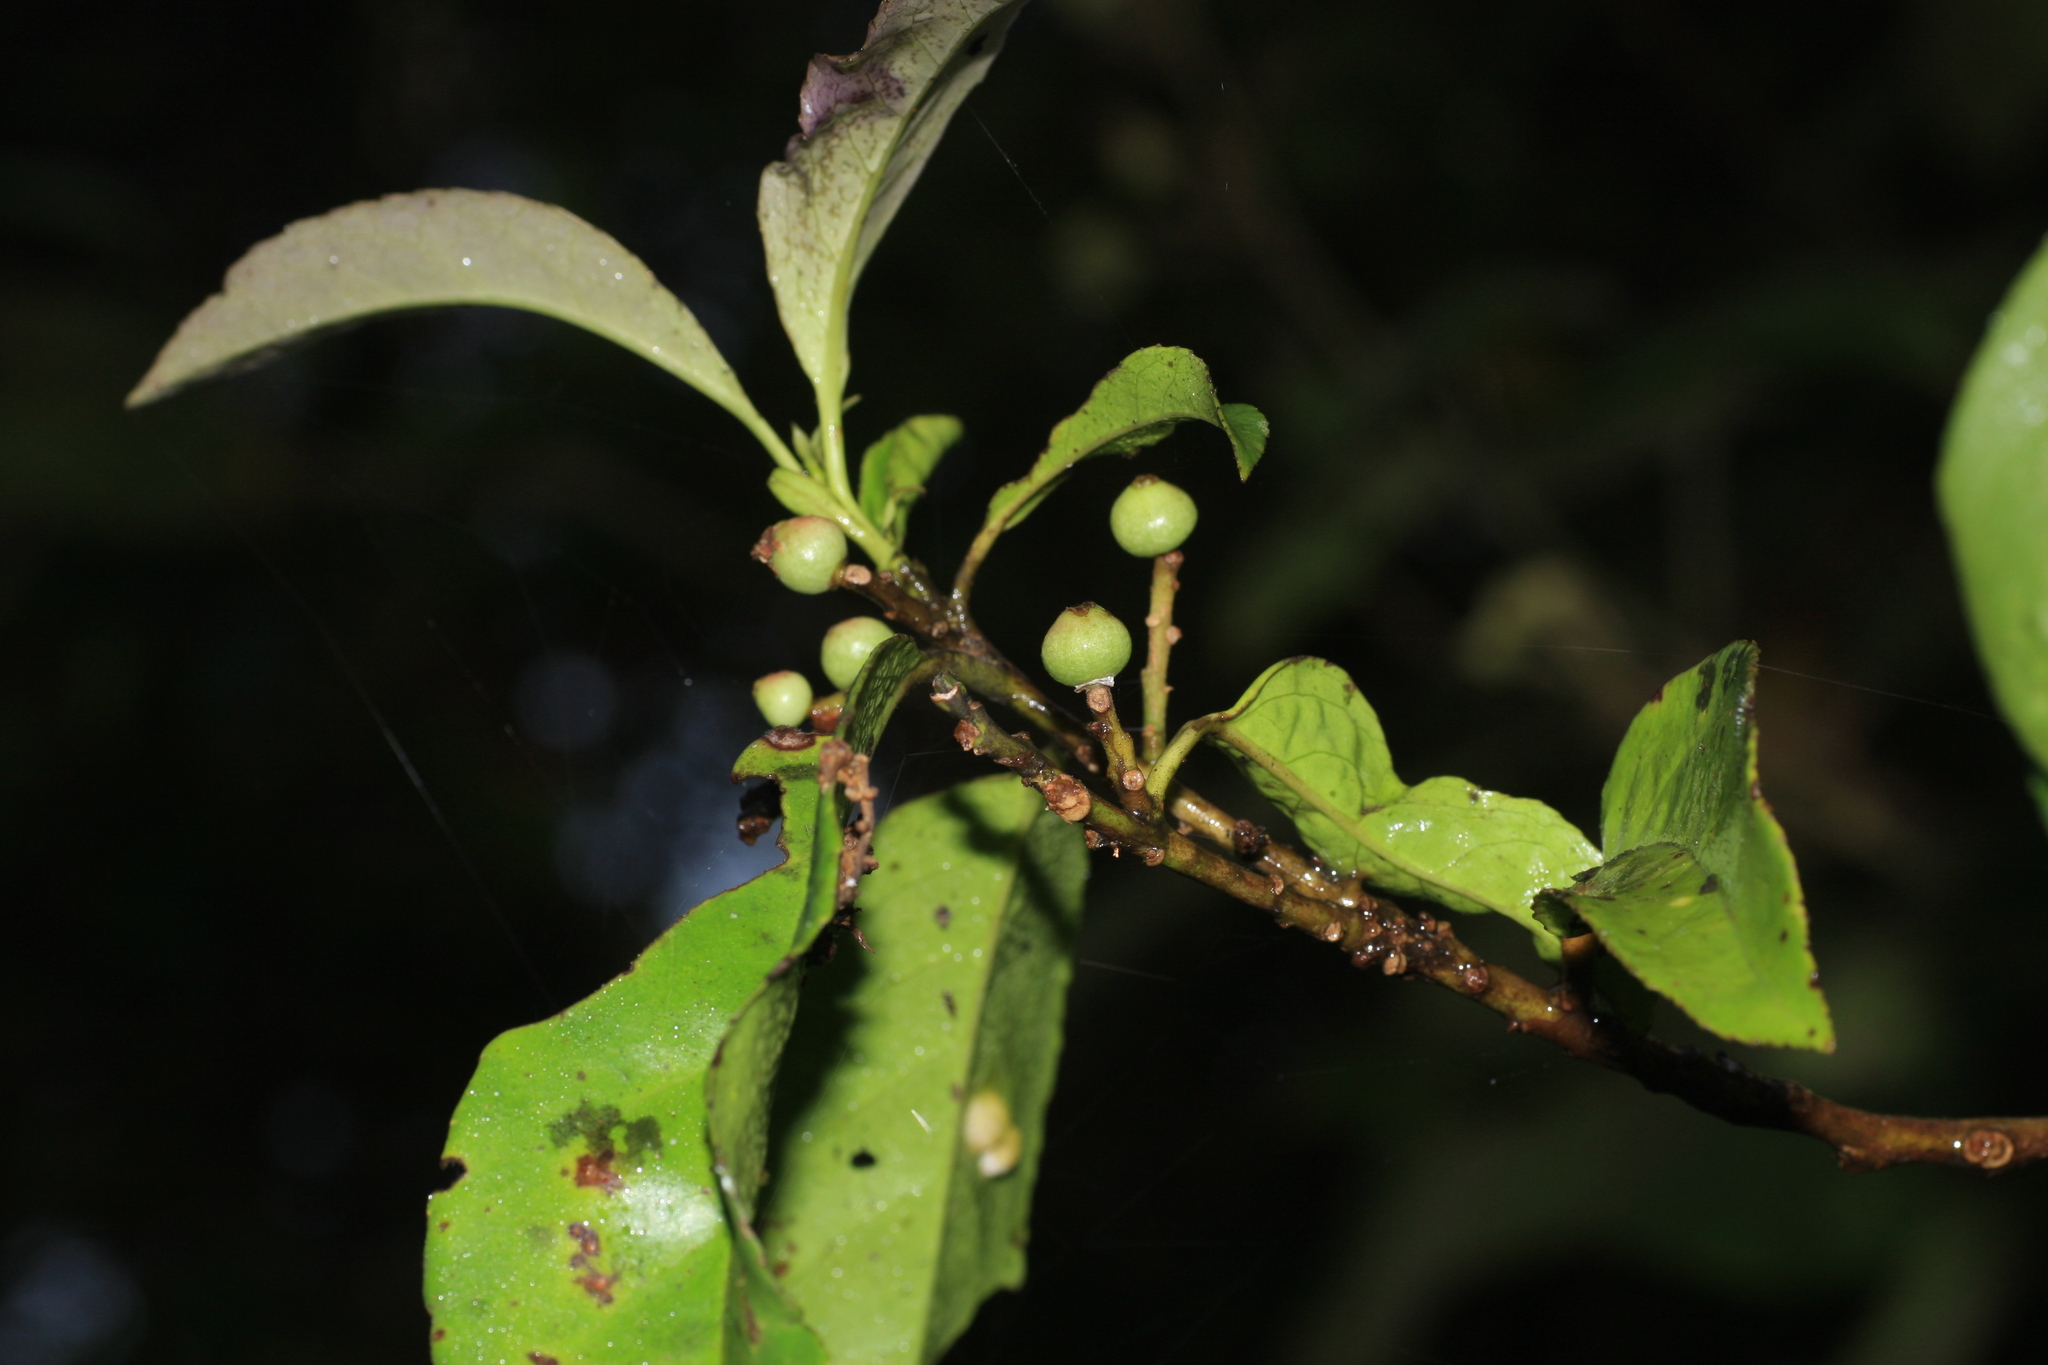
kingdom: Plantae
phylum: Tracheophyta
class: Magnoliopsida
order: Ericales
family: Symplocaceae
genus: Symplocos
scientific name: Symplocos cochinchinensis
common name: Buff hazelwood
